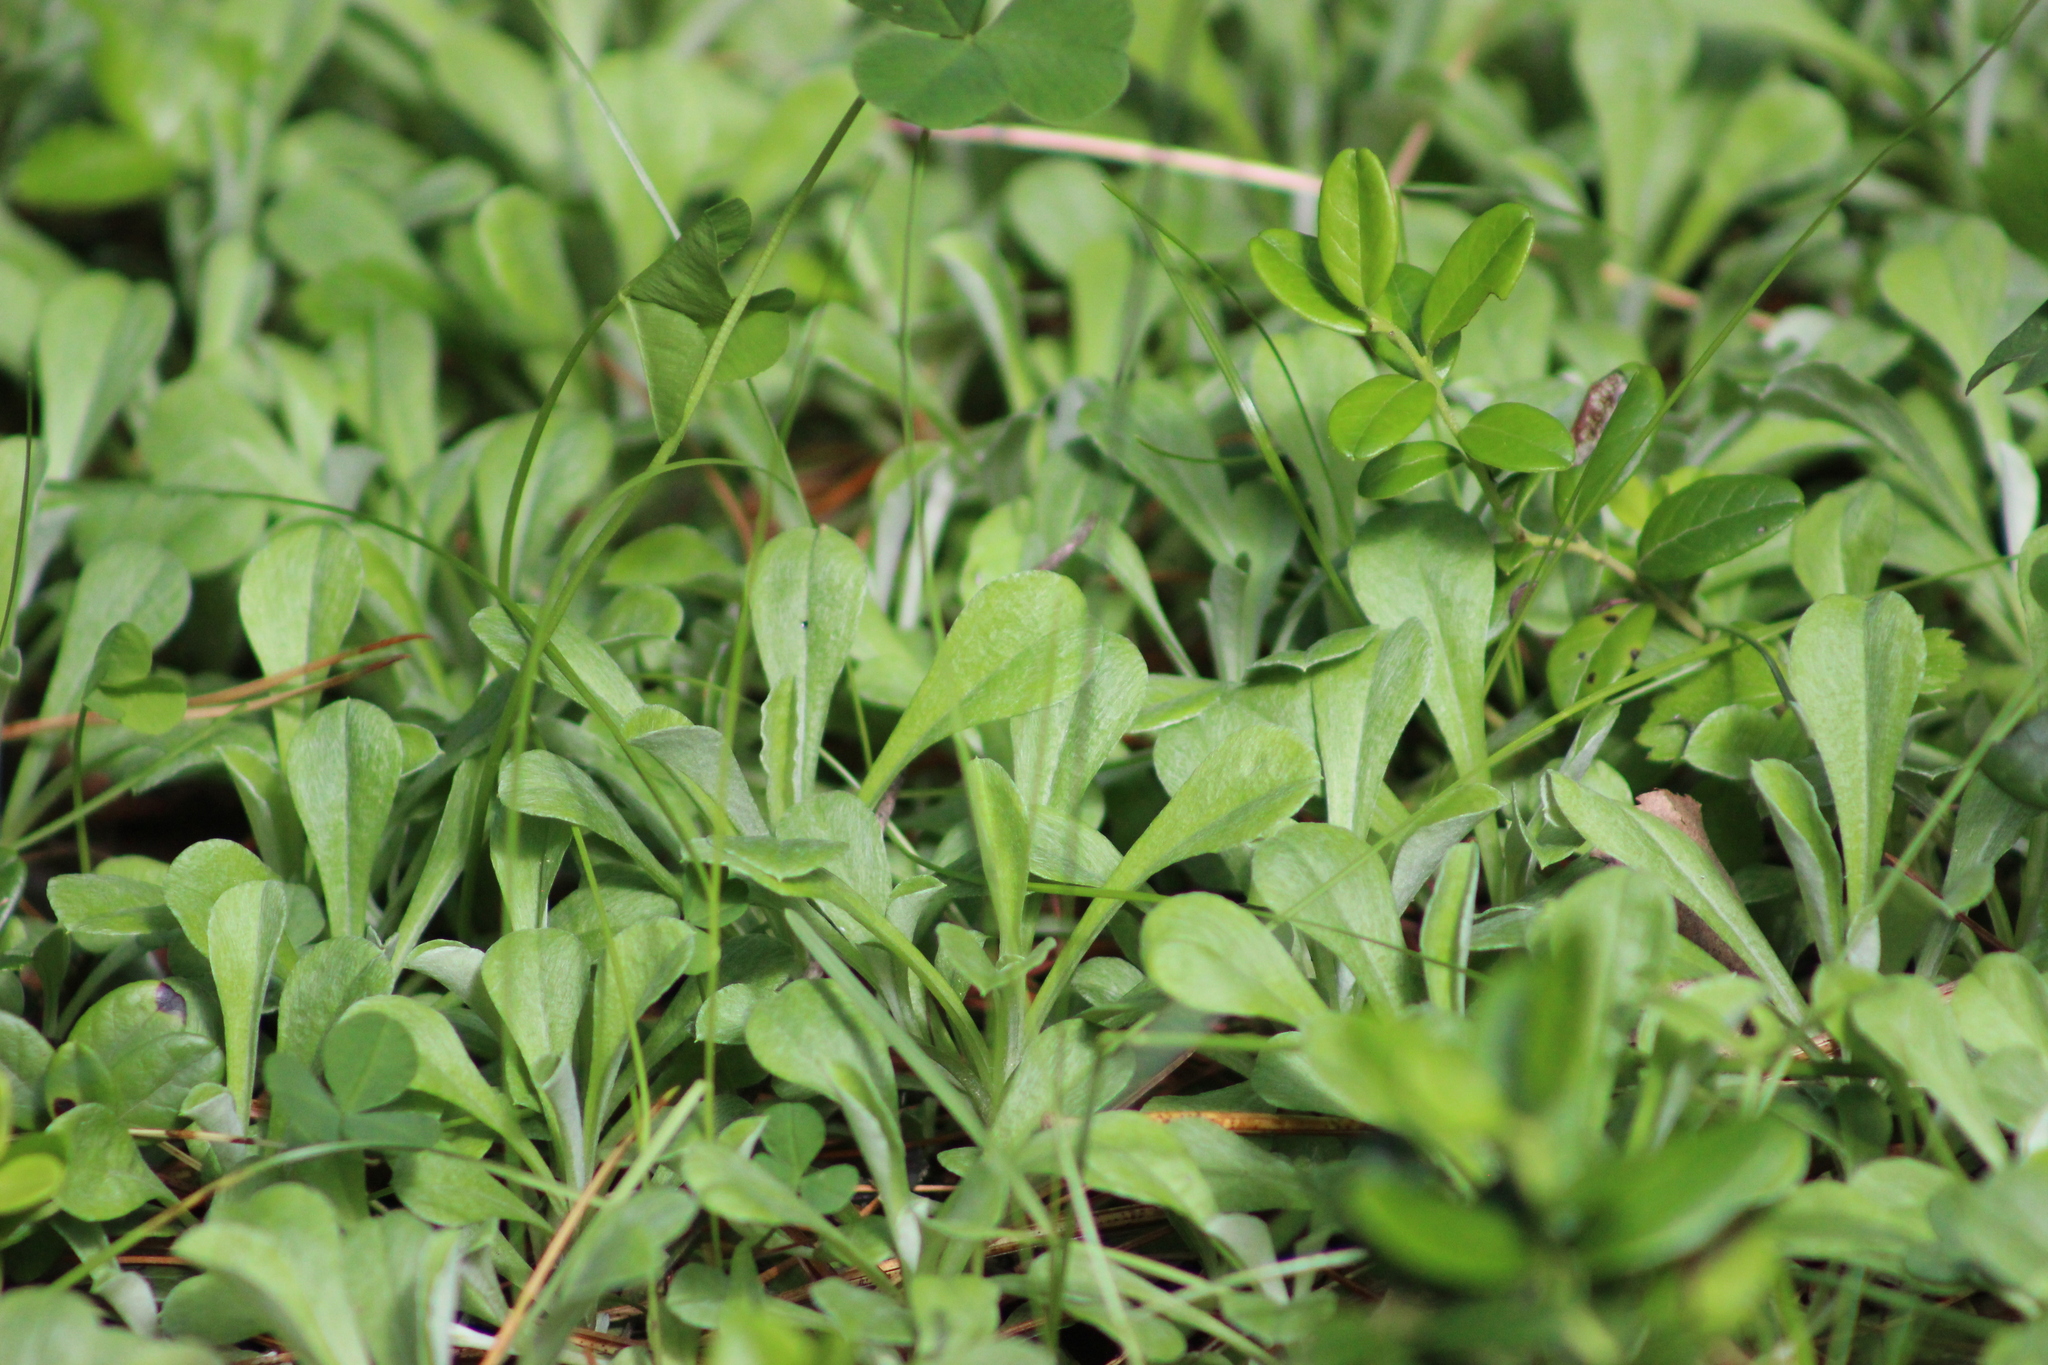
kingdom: Plantae
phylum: Tracheophyta
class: Magnoliopsida
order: Asterales
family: Asteraceae
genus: Antennaria
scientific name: Antennaria dioica
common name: Mountain everlasting
